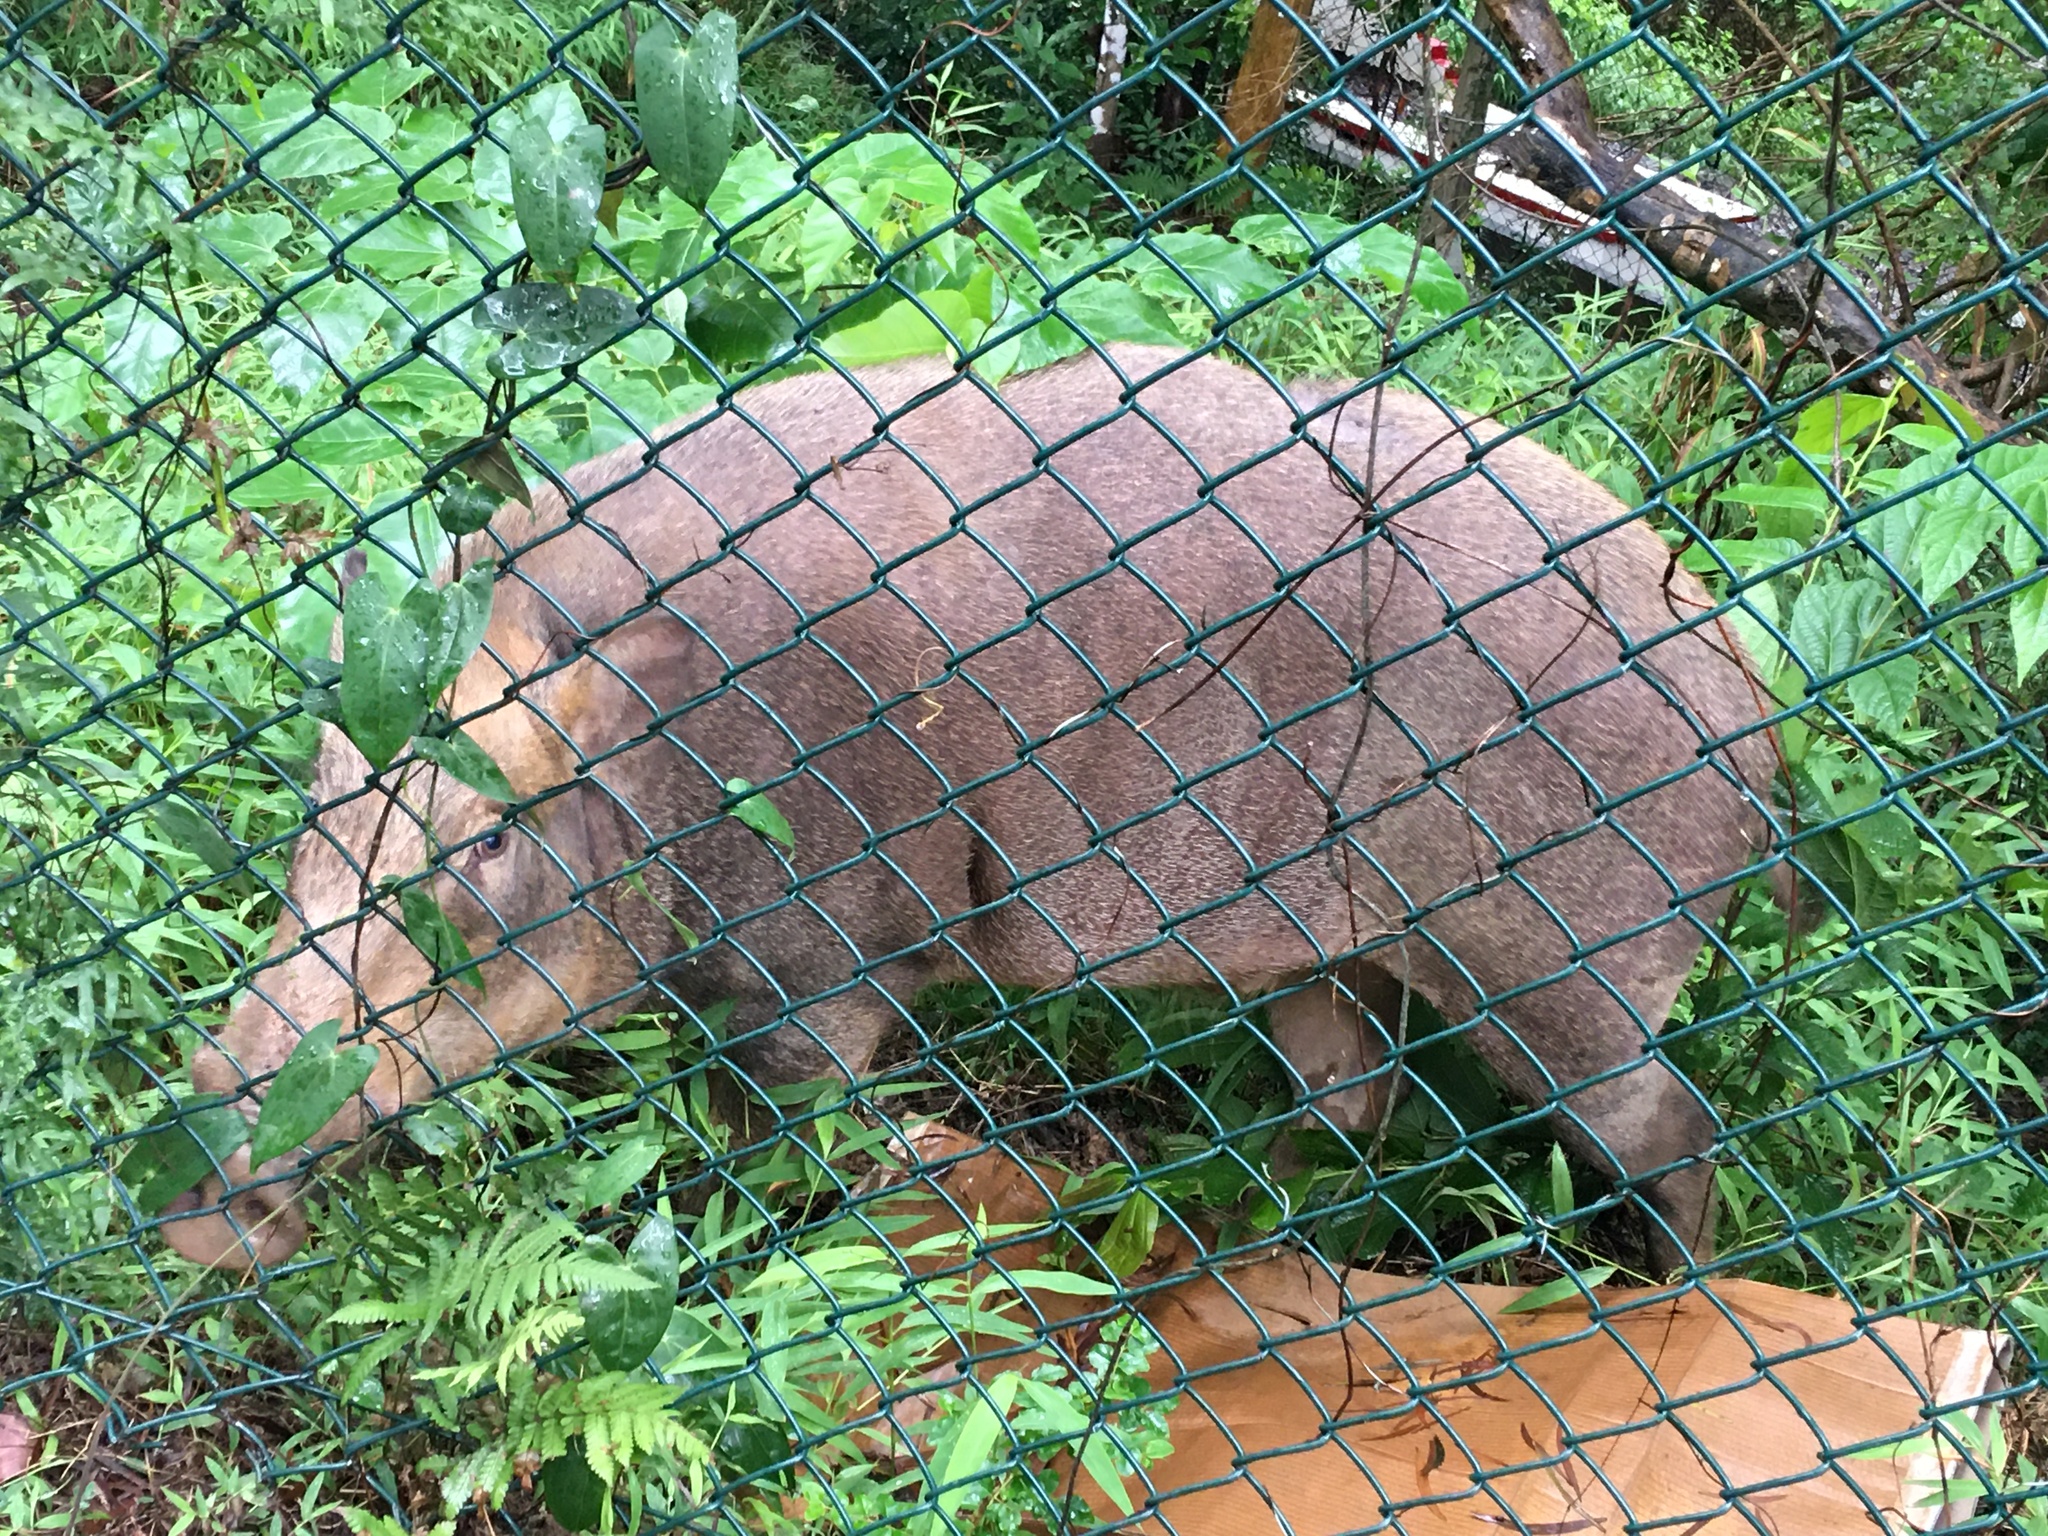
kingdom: Animalia
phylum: Chordata
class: Mammalia
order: Artiodactyla
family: Suidae
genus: Sus
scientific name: Sus scrofa
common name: Wild boar
